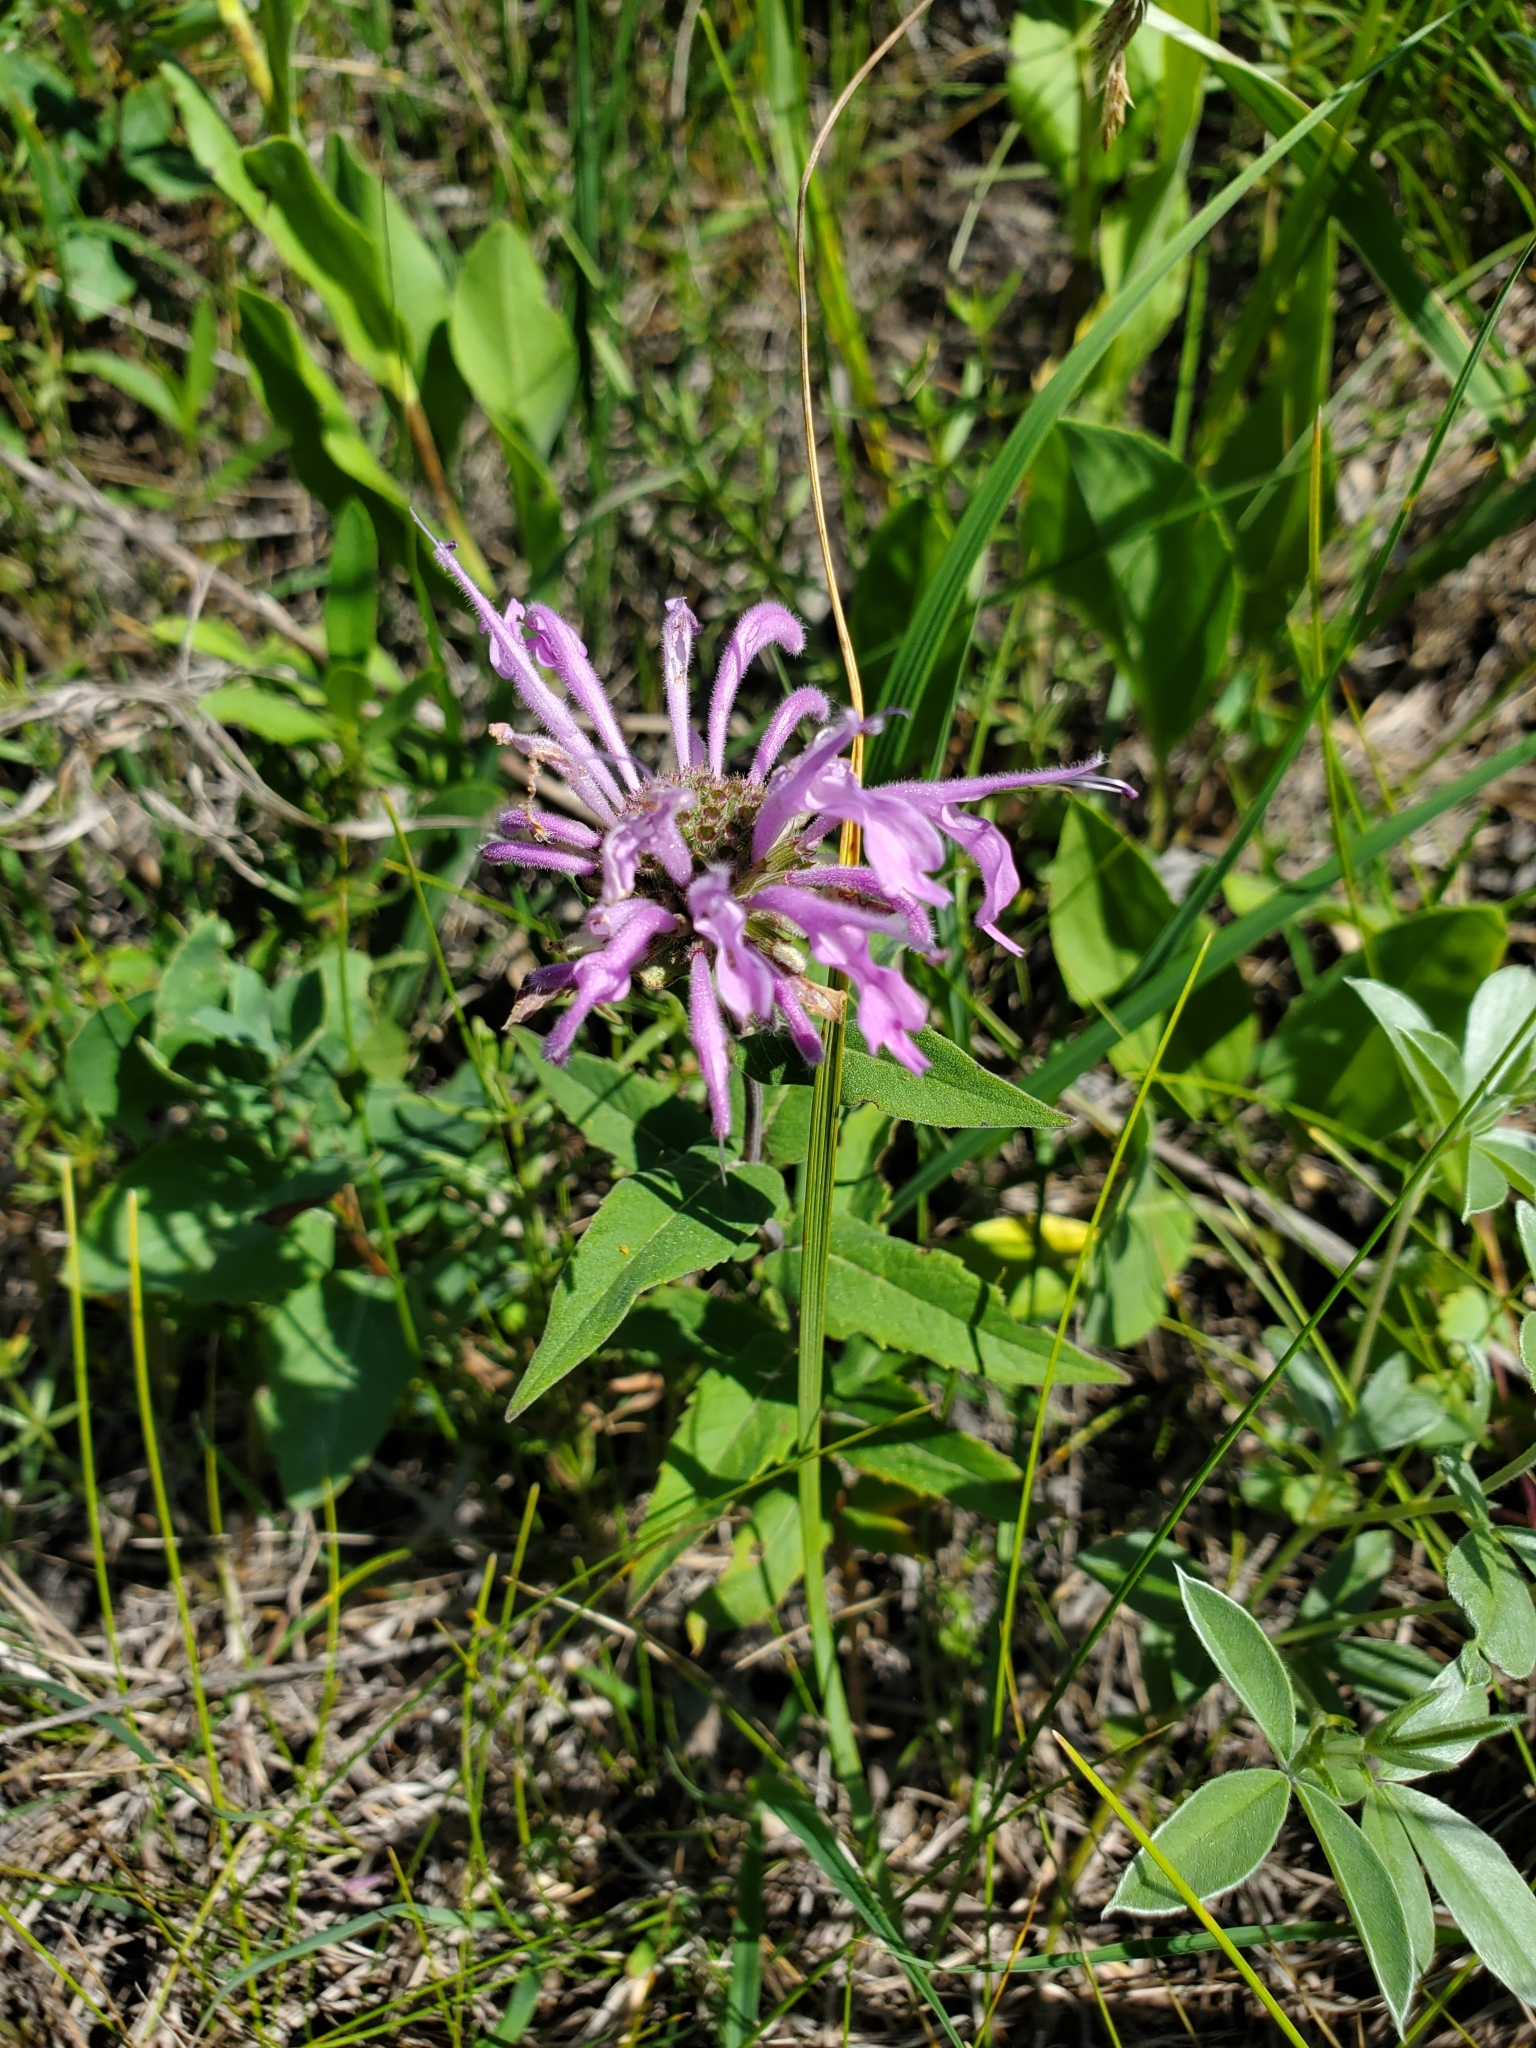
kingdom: Plantae
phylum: Tracheophyta
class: Magnoliopsida
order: Lamiales
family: Lamiaceae
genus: Monarda
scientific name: Monarda fistulosa
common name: Purple beebalm
